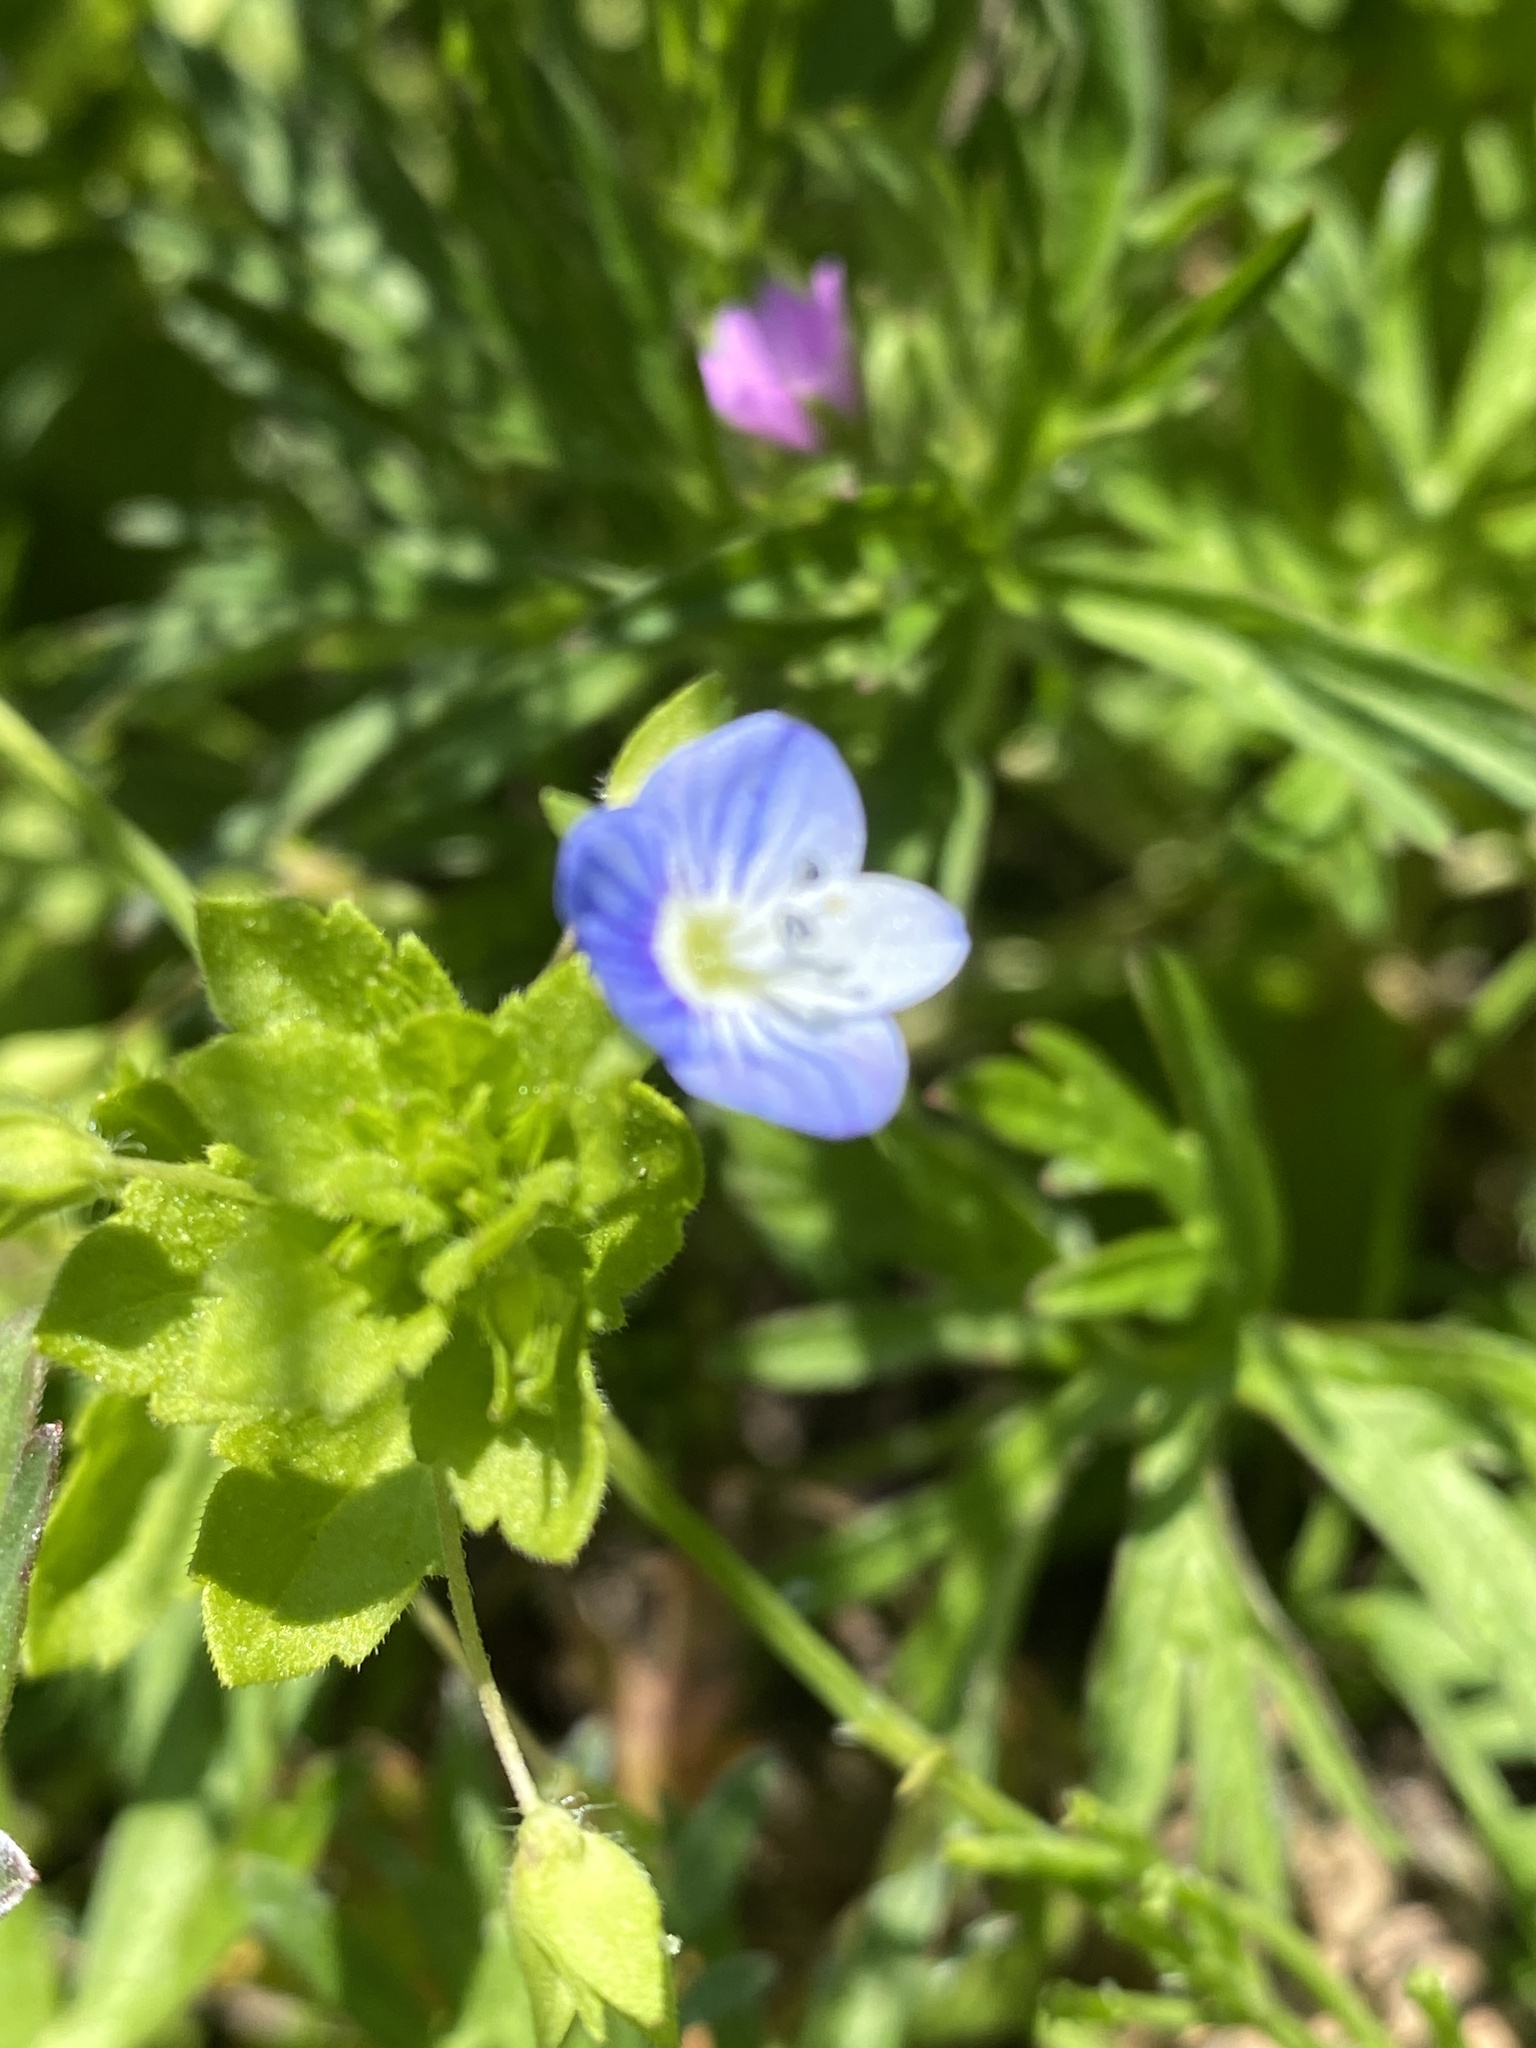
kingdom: Plantae
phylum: Tracheophyta
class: Magnoliopsida
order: Lamiales
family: Plantaginaceae
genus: Veronica
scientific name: Veronica persica
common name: Common field-speedwell
